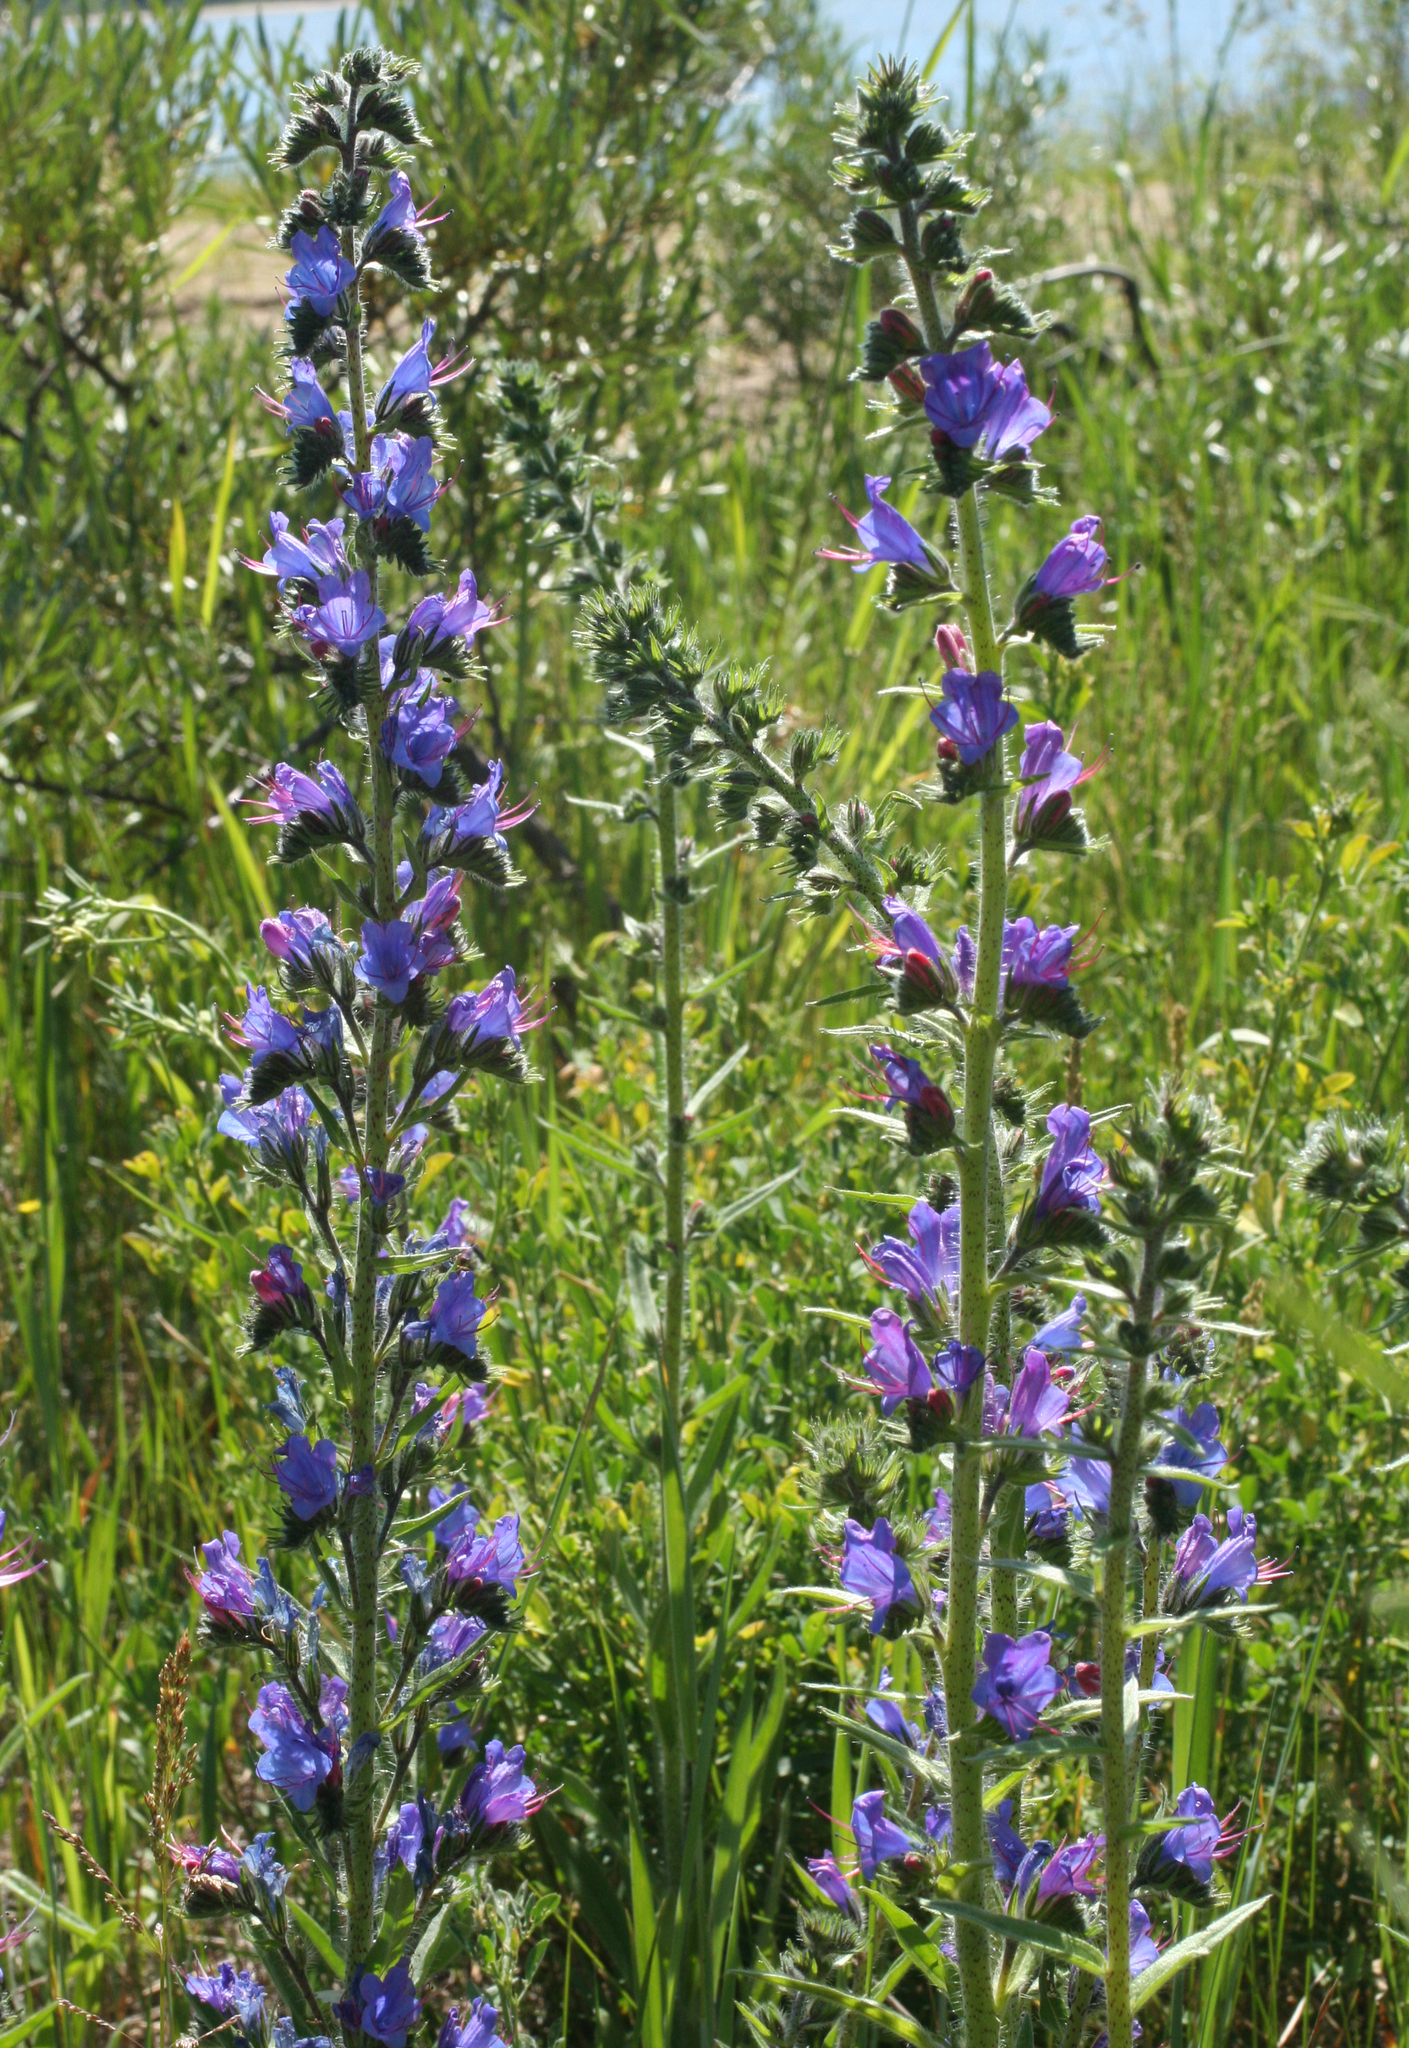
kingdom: Plantae
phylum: Tracheophyta
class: Magnoliopsida
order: Boraginales
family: Boraginaceae
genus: Echium
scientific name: Echium vulgare
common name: Common viper's bugloss
